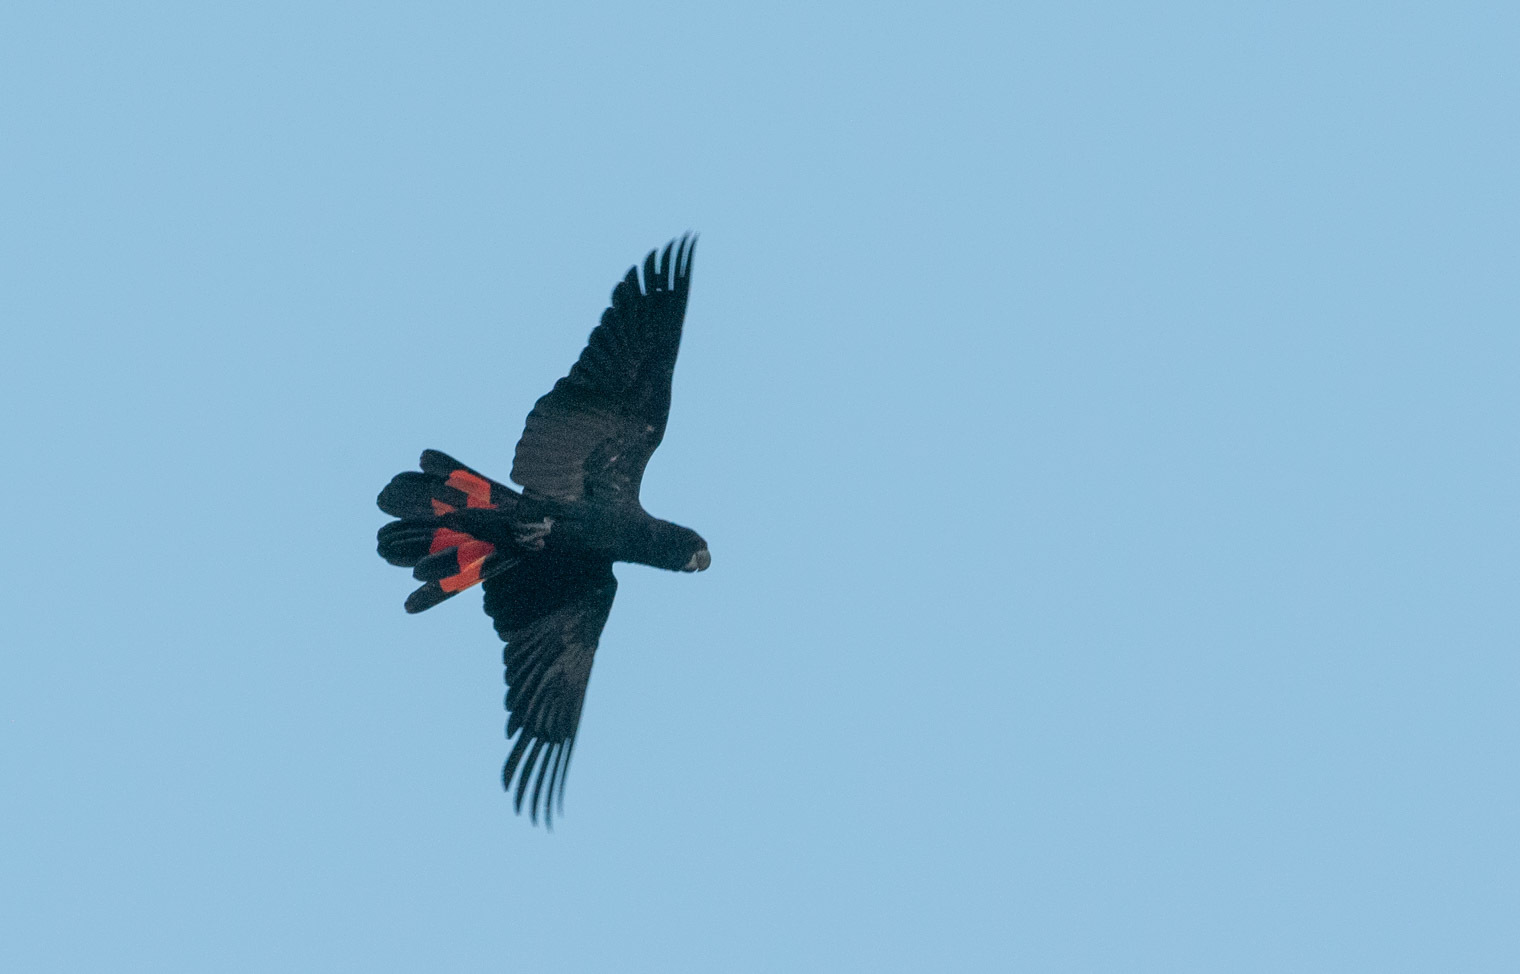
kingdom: Animalia
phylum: Chordata
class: Aves
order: Psittaciformes
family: Psittacidae
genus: Calyptorhynchus
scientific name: Calyptorhynchus banksii
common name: Red-tailed black cockatoo
